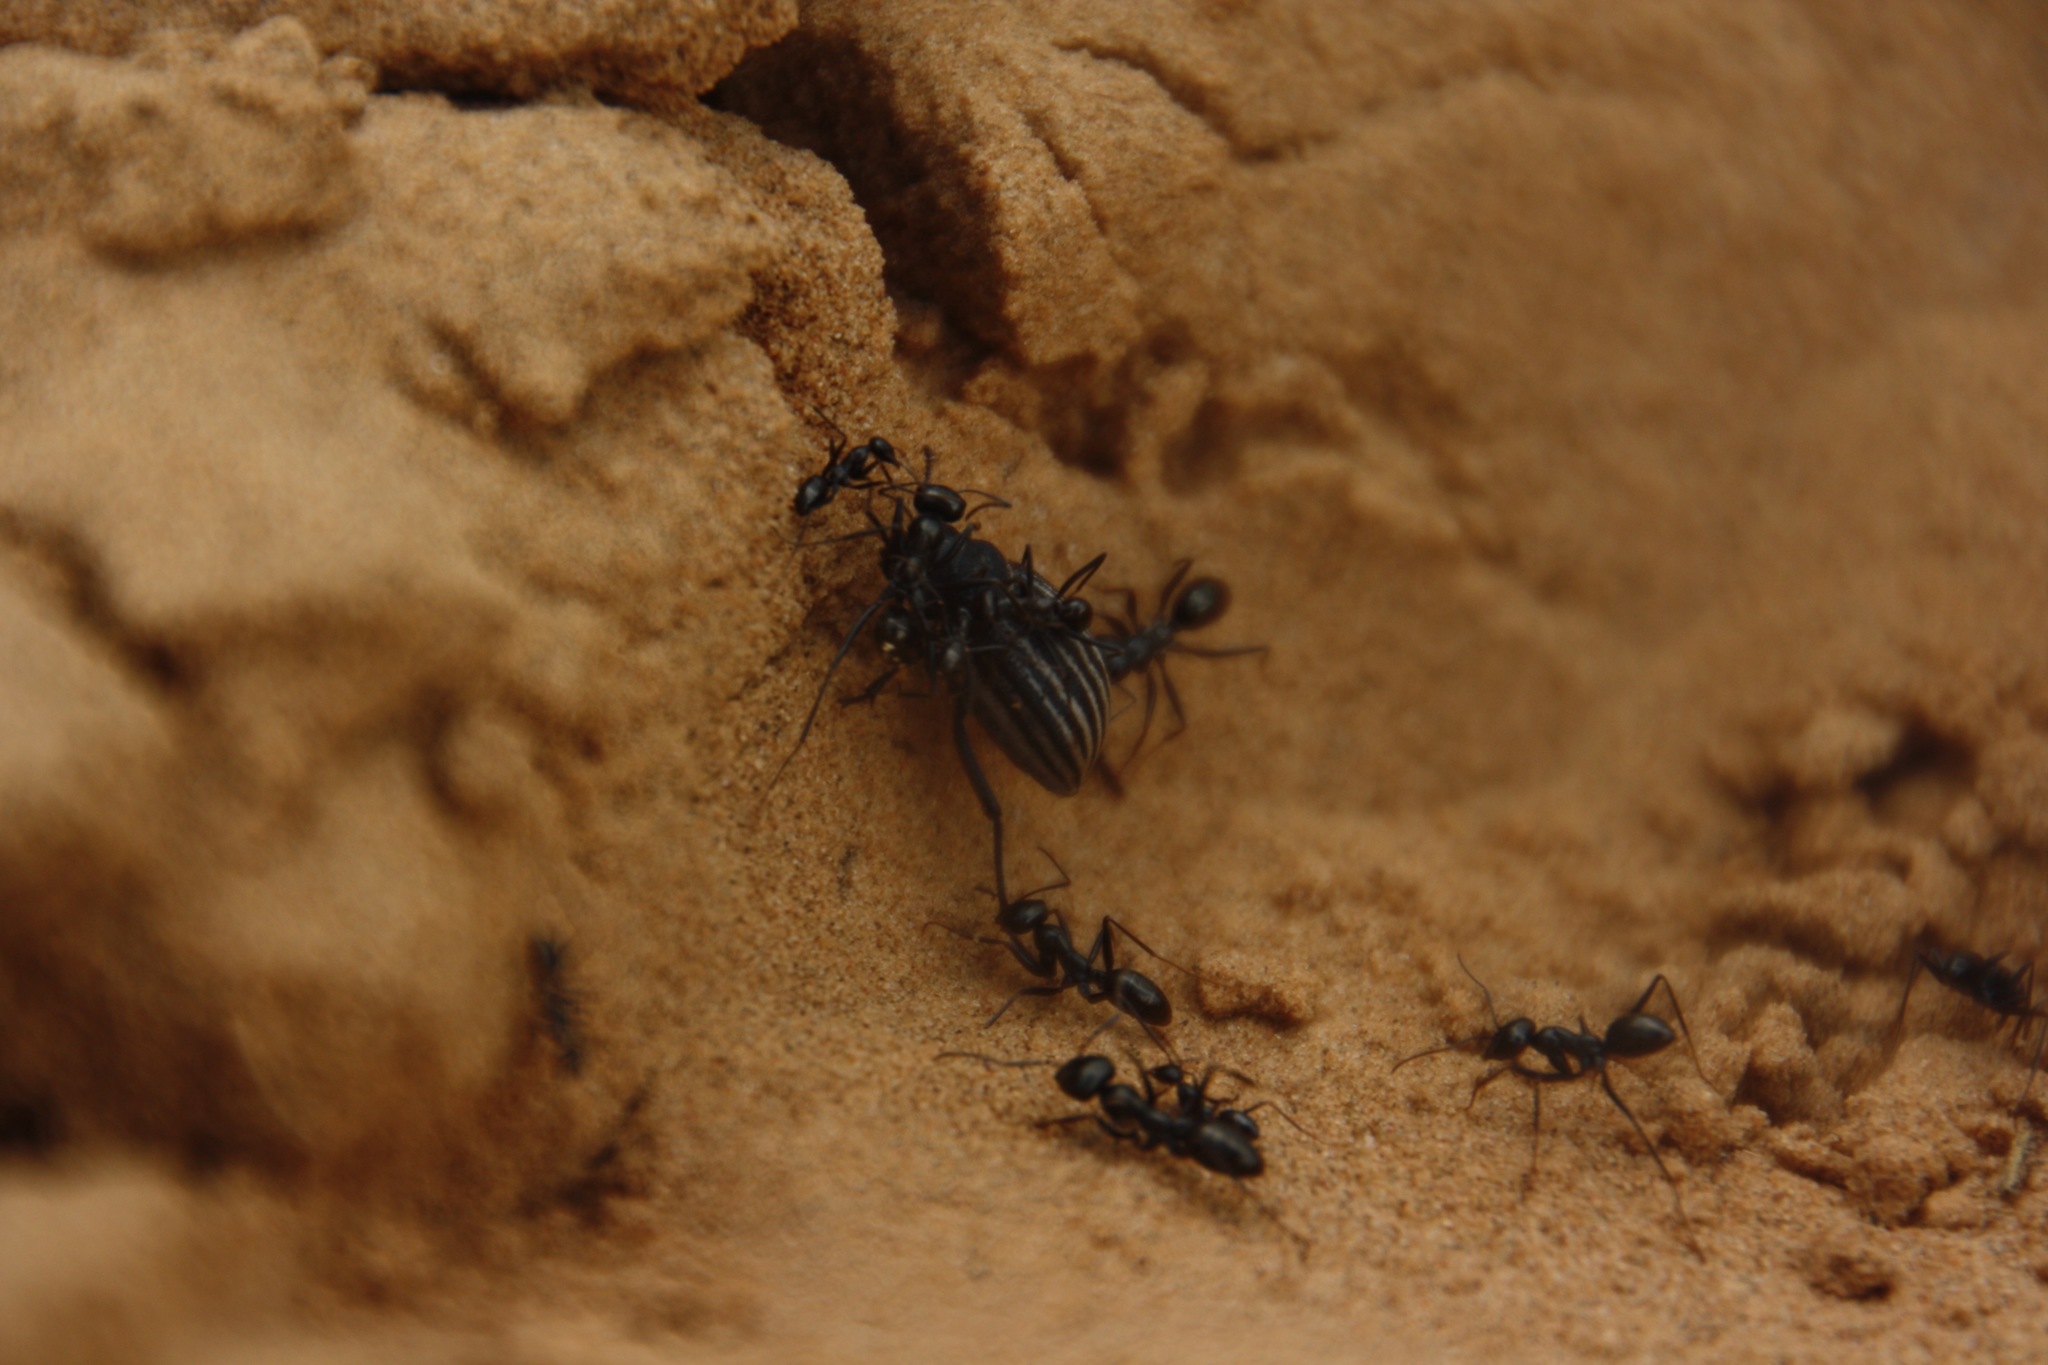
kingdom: Animalia
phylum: Arthropoda
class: Insecta
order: Hymenoptera
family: Formicidae
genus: Cataglyphis
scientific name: Cataglyphis aenescens
